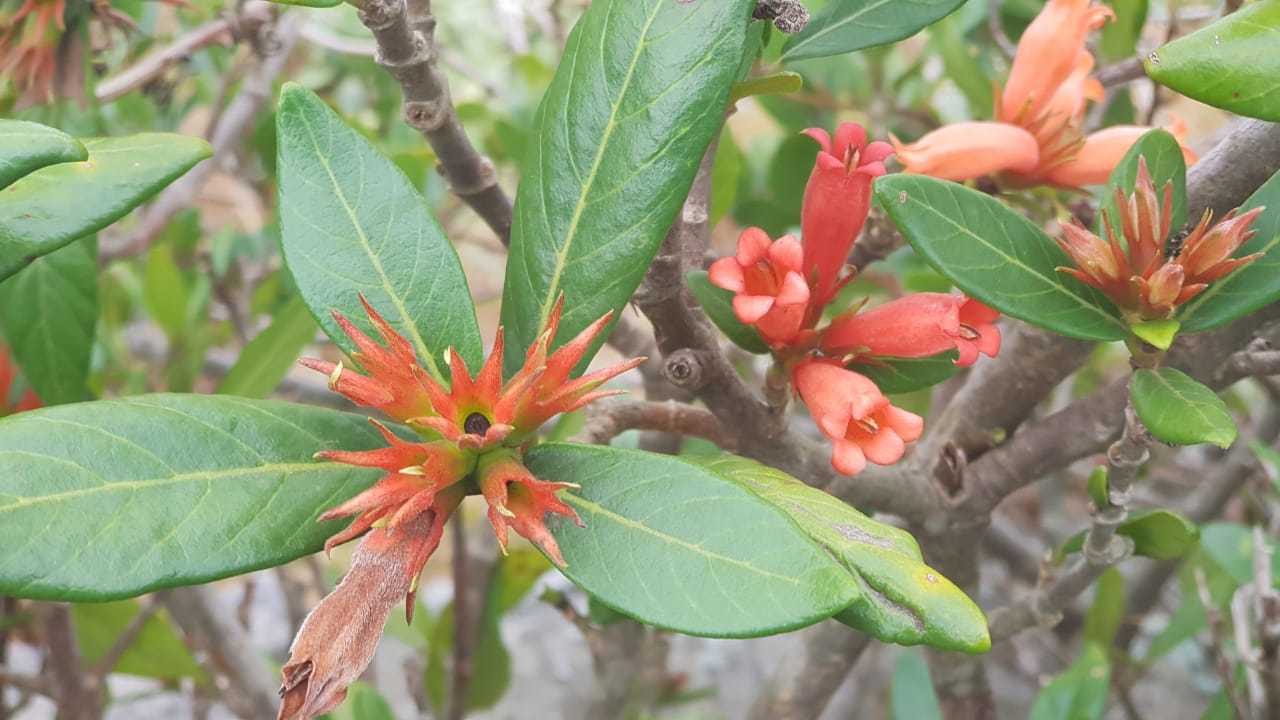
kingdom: Plantae
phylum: Tracheophyta
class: Magnoliopsida
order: Gentianales
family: Rubiaceae
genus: Burchellia
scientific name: Burchellia bubalina
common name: Wild pomegranate
